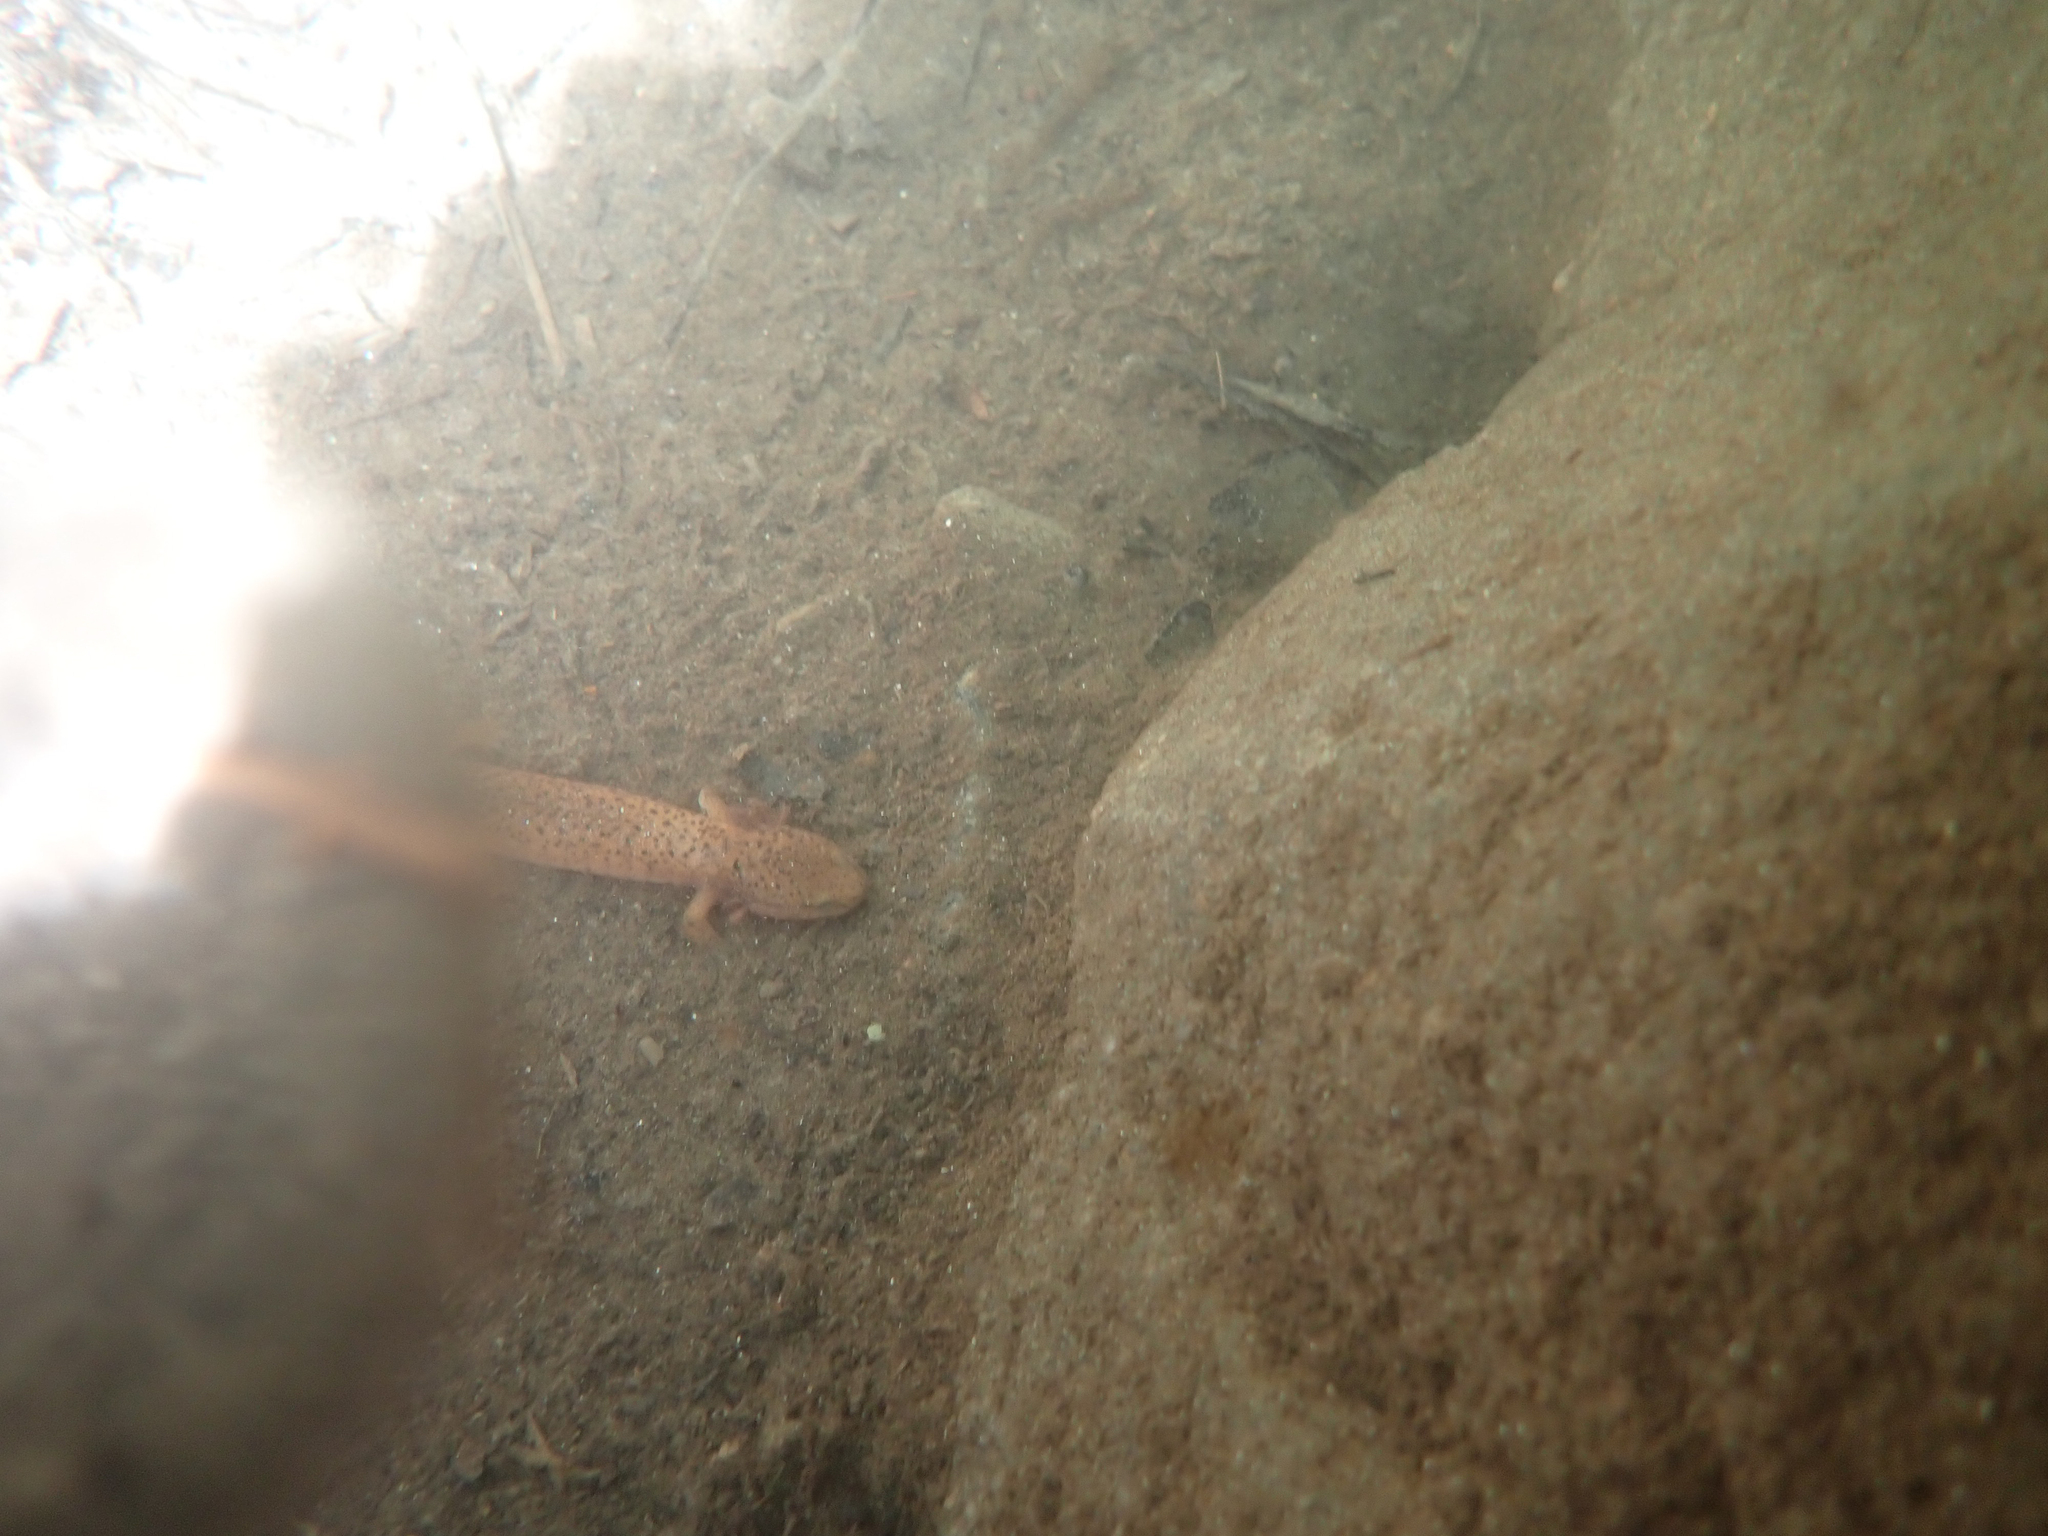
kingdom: Animalia
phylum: Chordata
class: Amphibia
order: Caudata
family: Plethodontidae
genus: Pseudotriton
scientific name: Pseudotriton ruber
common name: Red salamander
